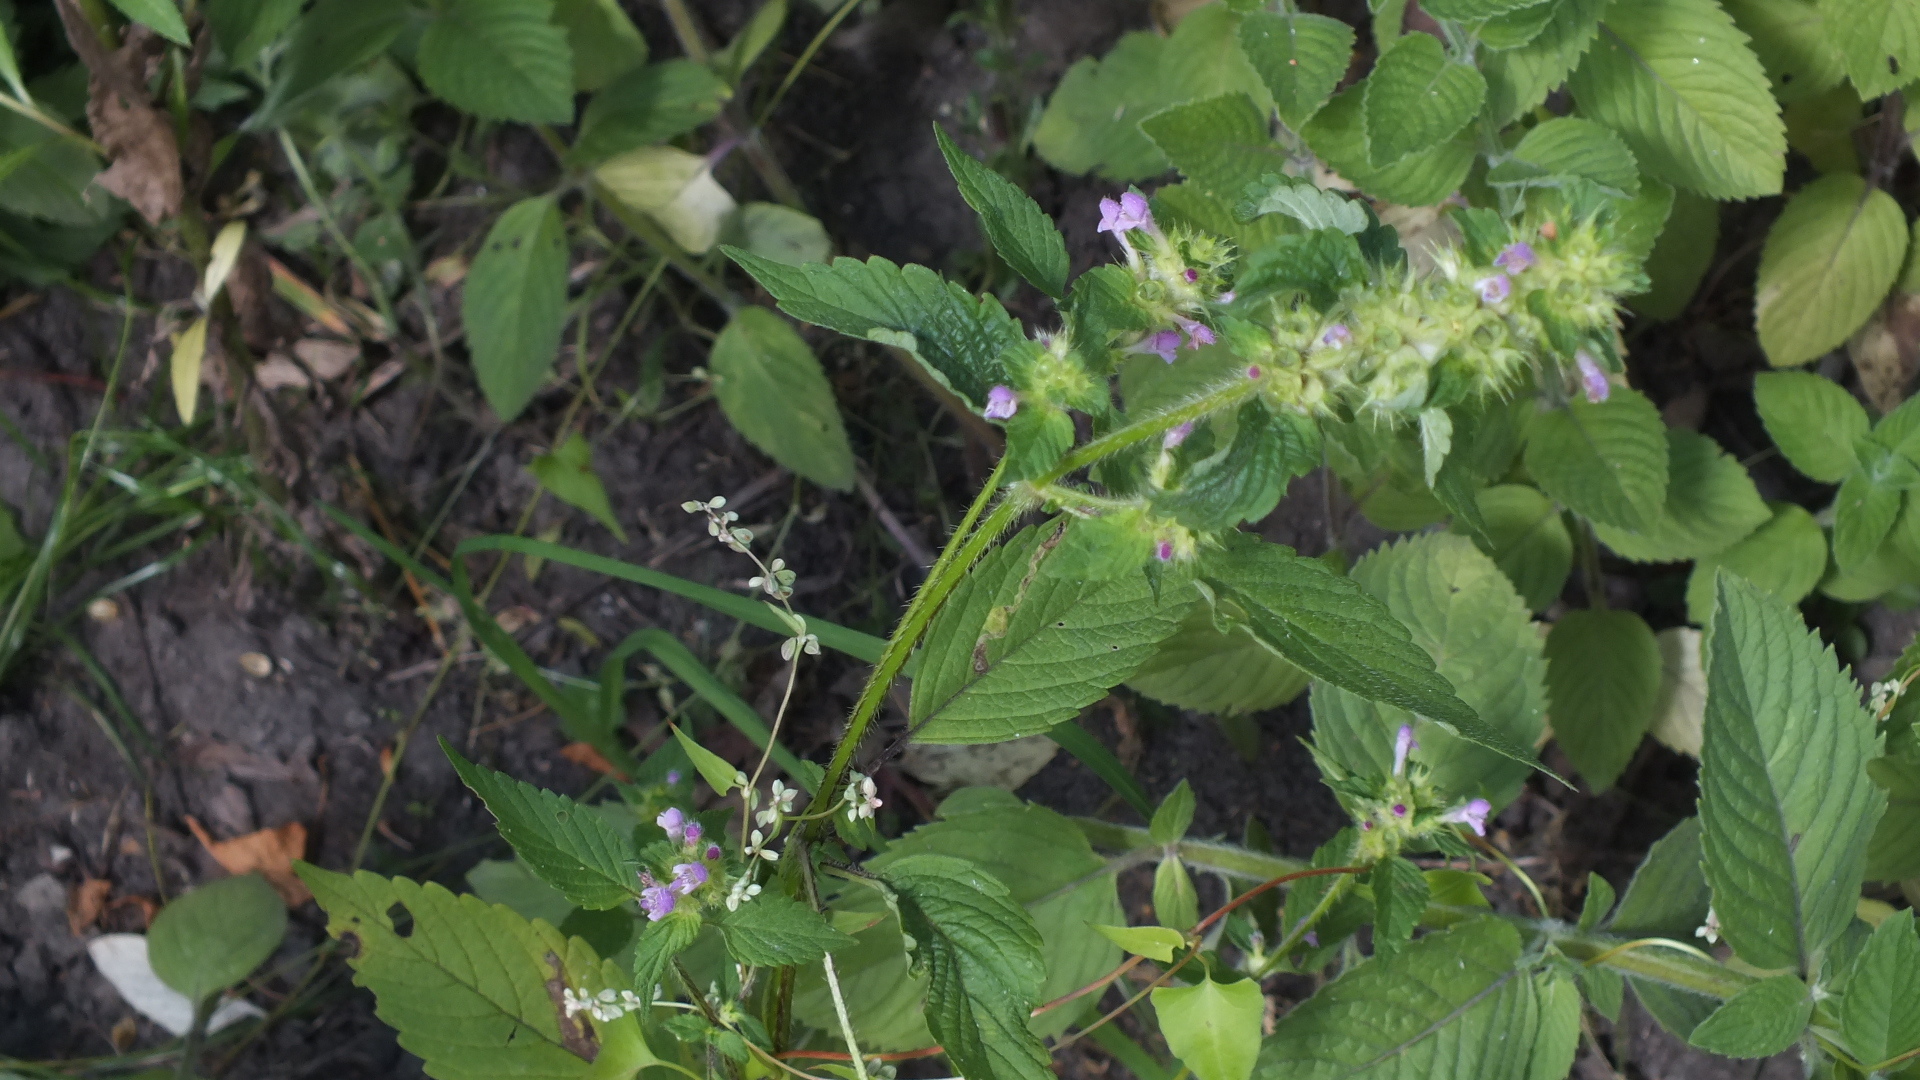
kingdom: Plantae
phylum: Tracheophyta
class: Magnoliopsida
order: Lamiales
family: Lamiaceae
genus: Galeopsis
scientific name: Galeopsis bifida
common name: Bifid hemp-nettle
